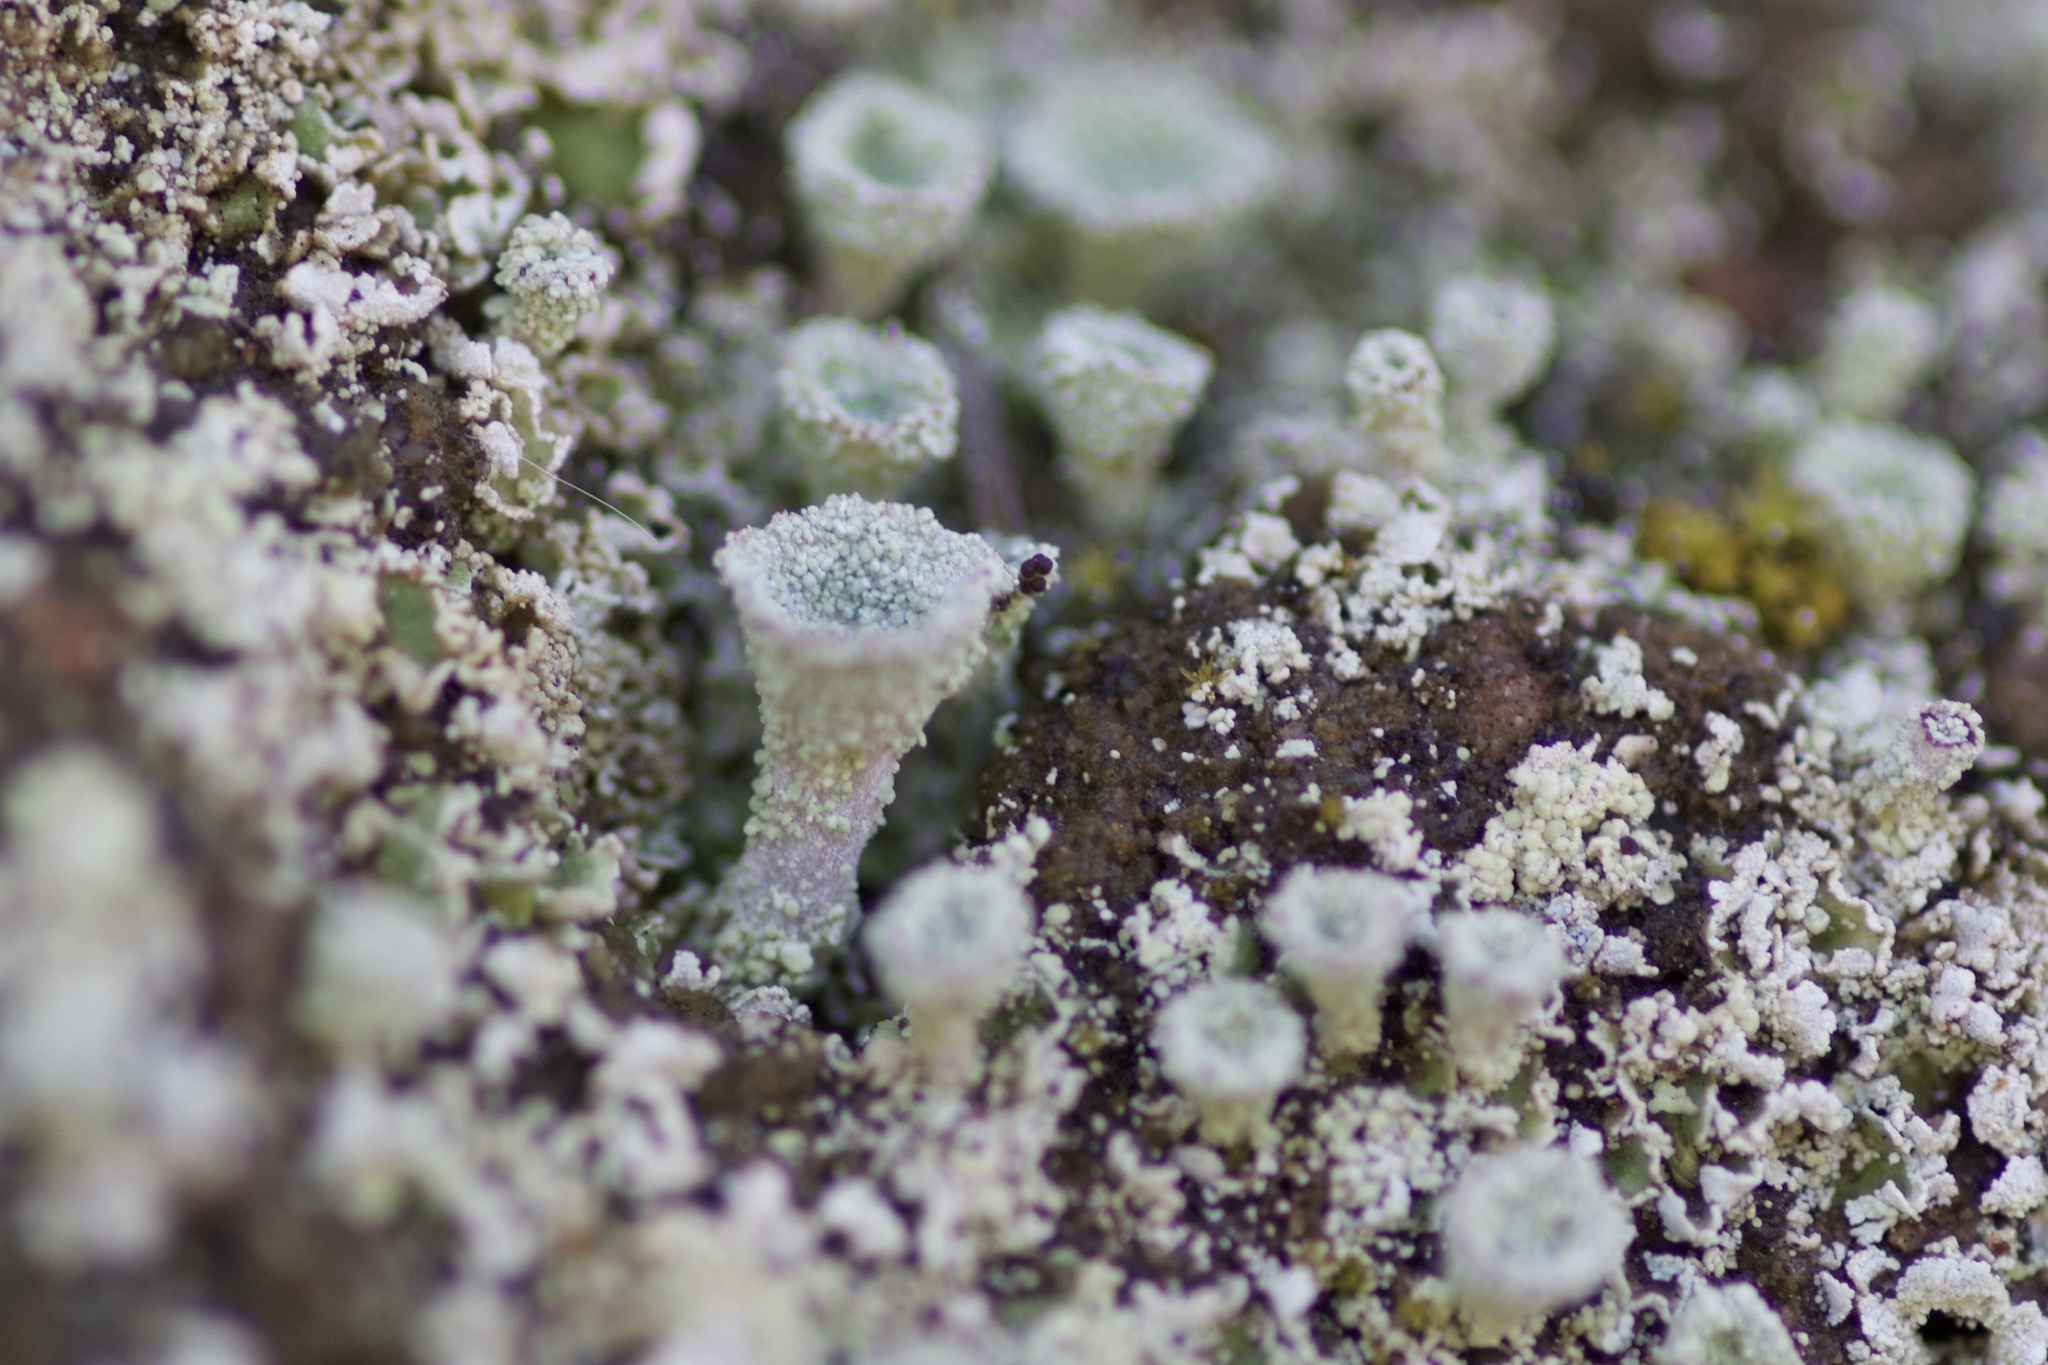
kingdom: Fungi
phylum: Ascomycota
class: Lecanoromycetes
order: Lecanorales
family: Cladoniaceae
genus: Cladonia
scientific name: Cladonia chlorophaea
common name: Mealy pixie cup
